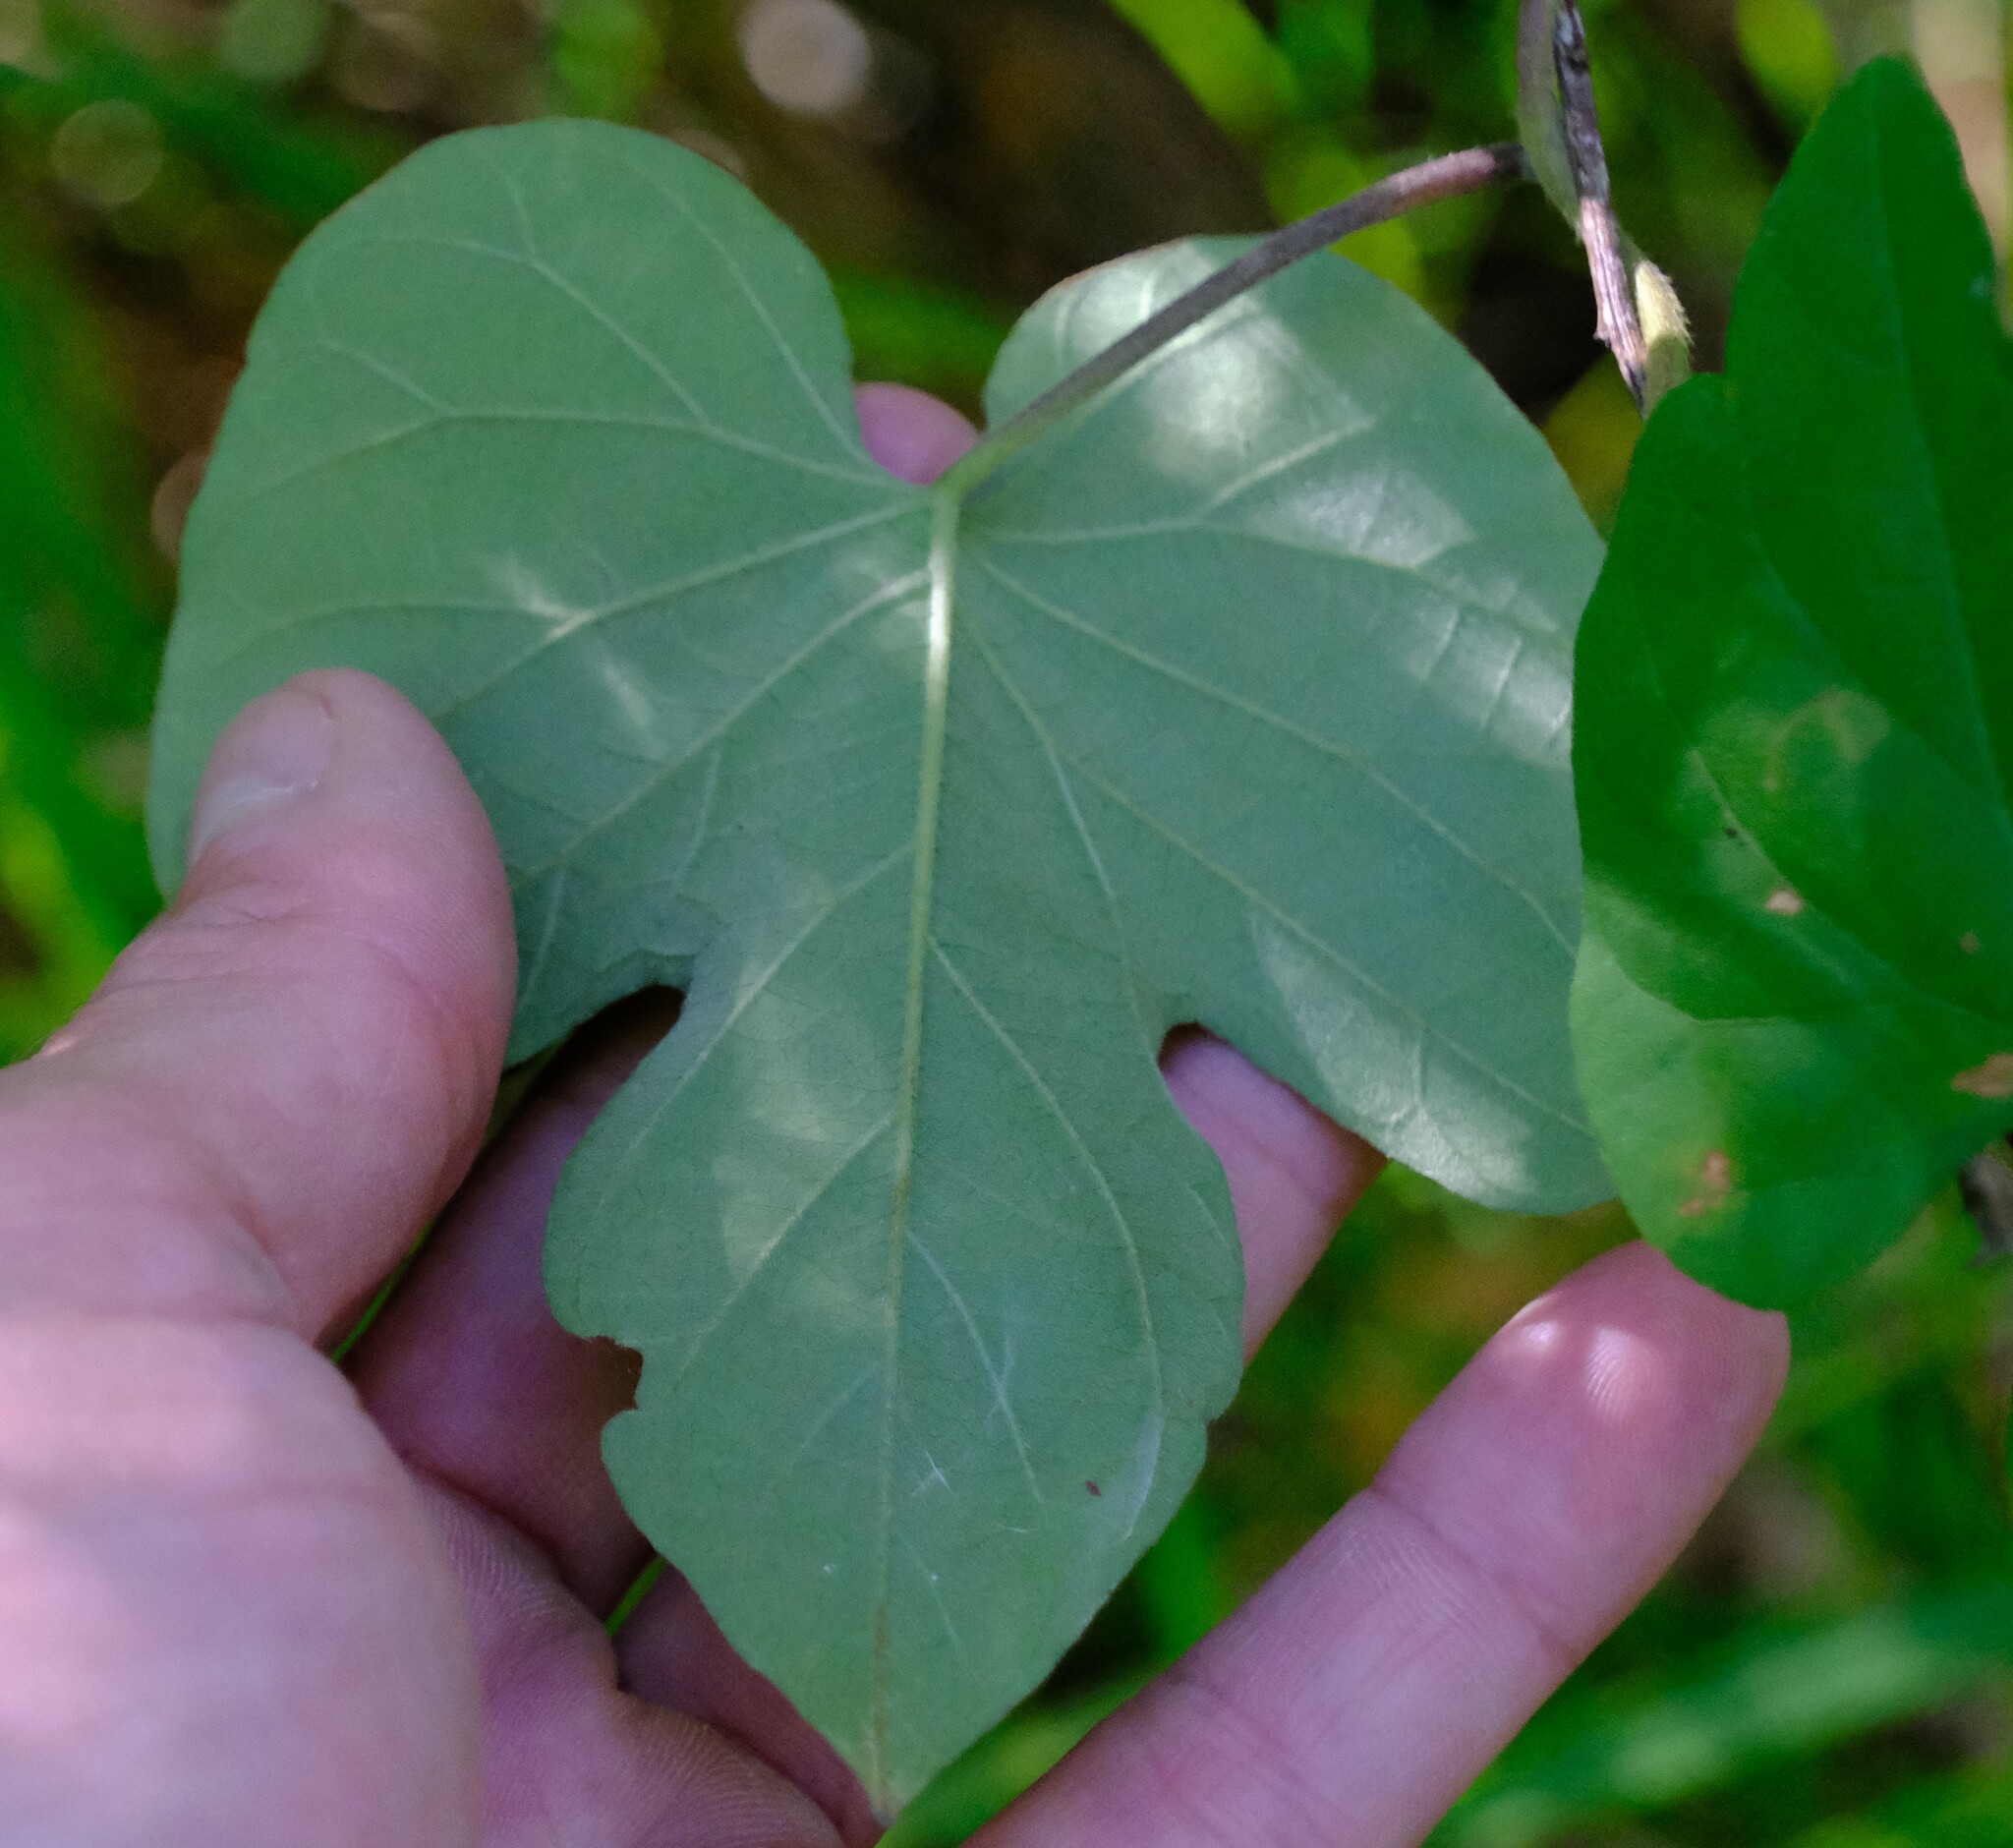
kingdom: Plantae
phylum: Tracheophyta
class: Magnoliopsida
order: Solanales
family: Convolvulaceae
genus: Ipomoea
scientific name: Ipomoea indica
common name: Blue dawnflower
